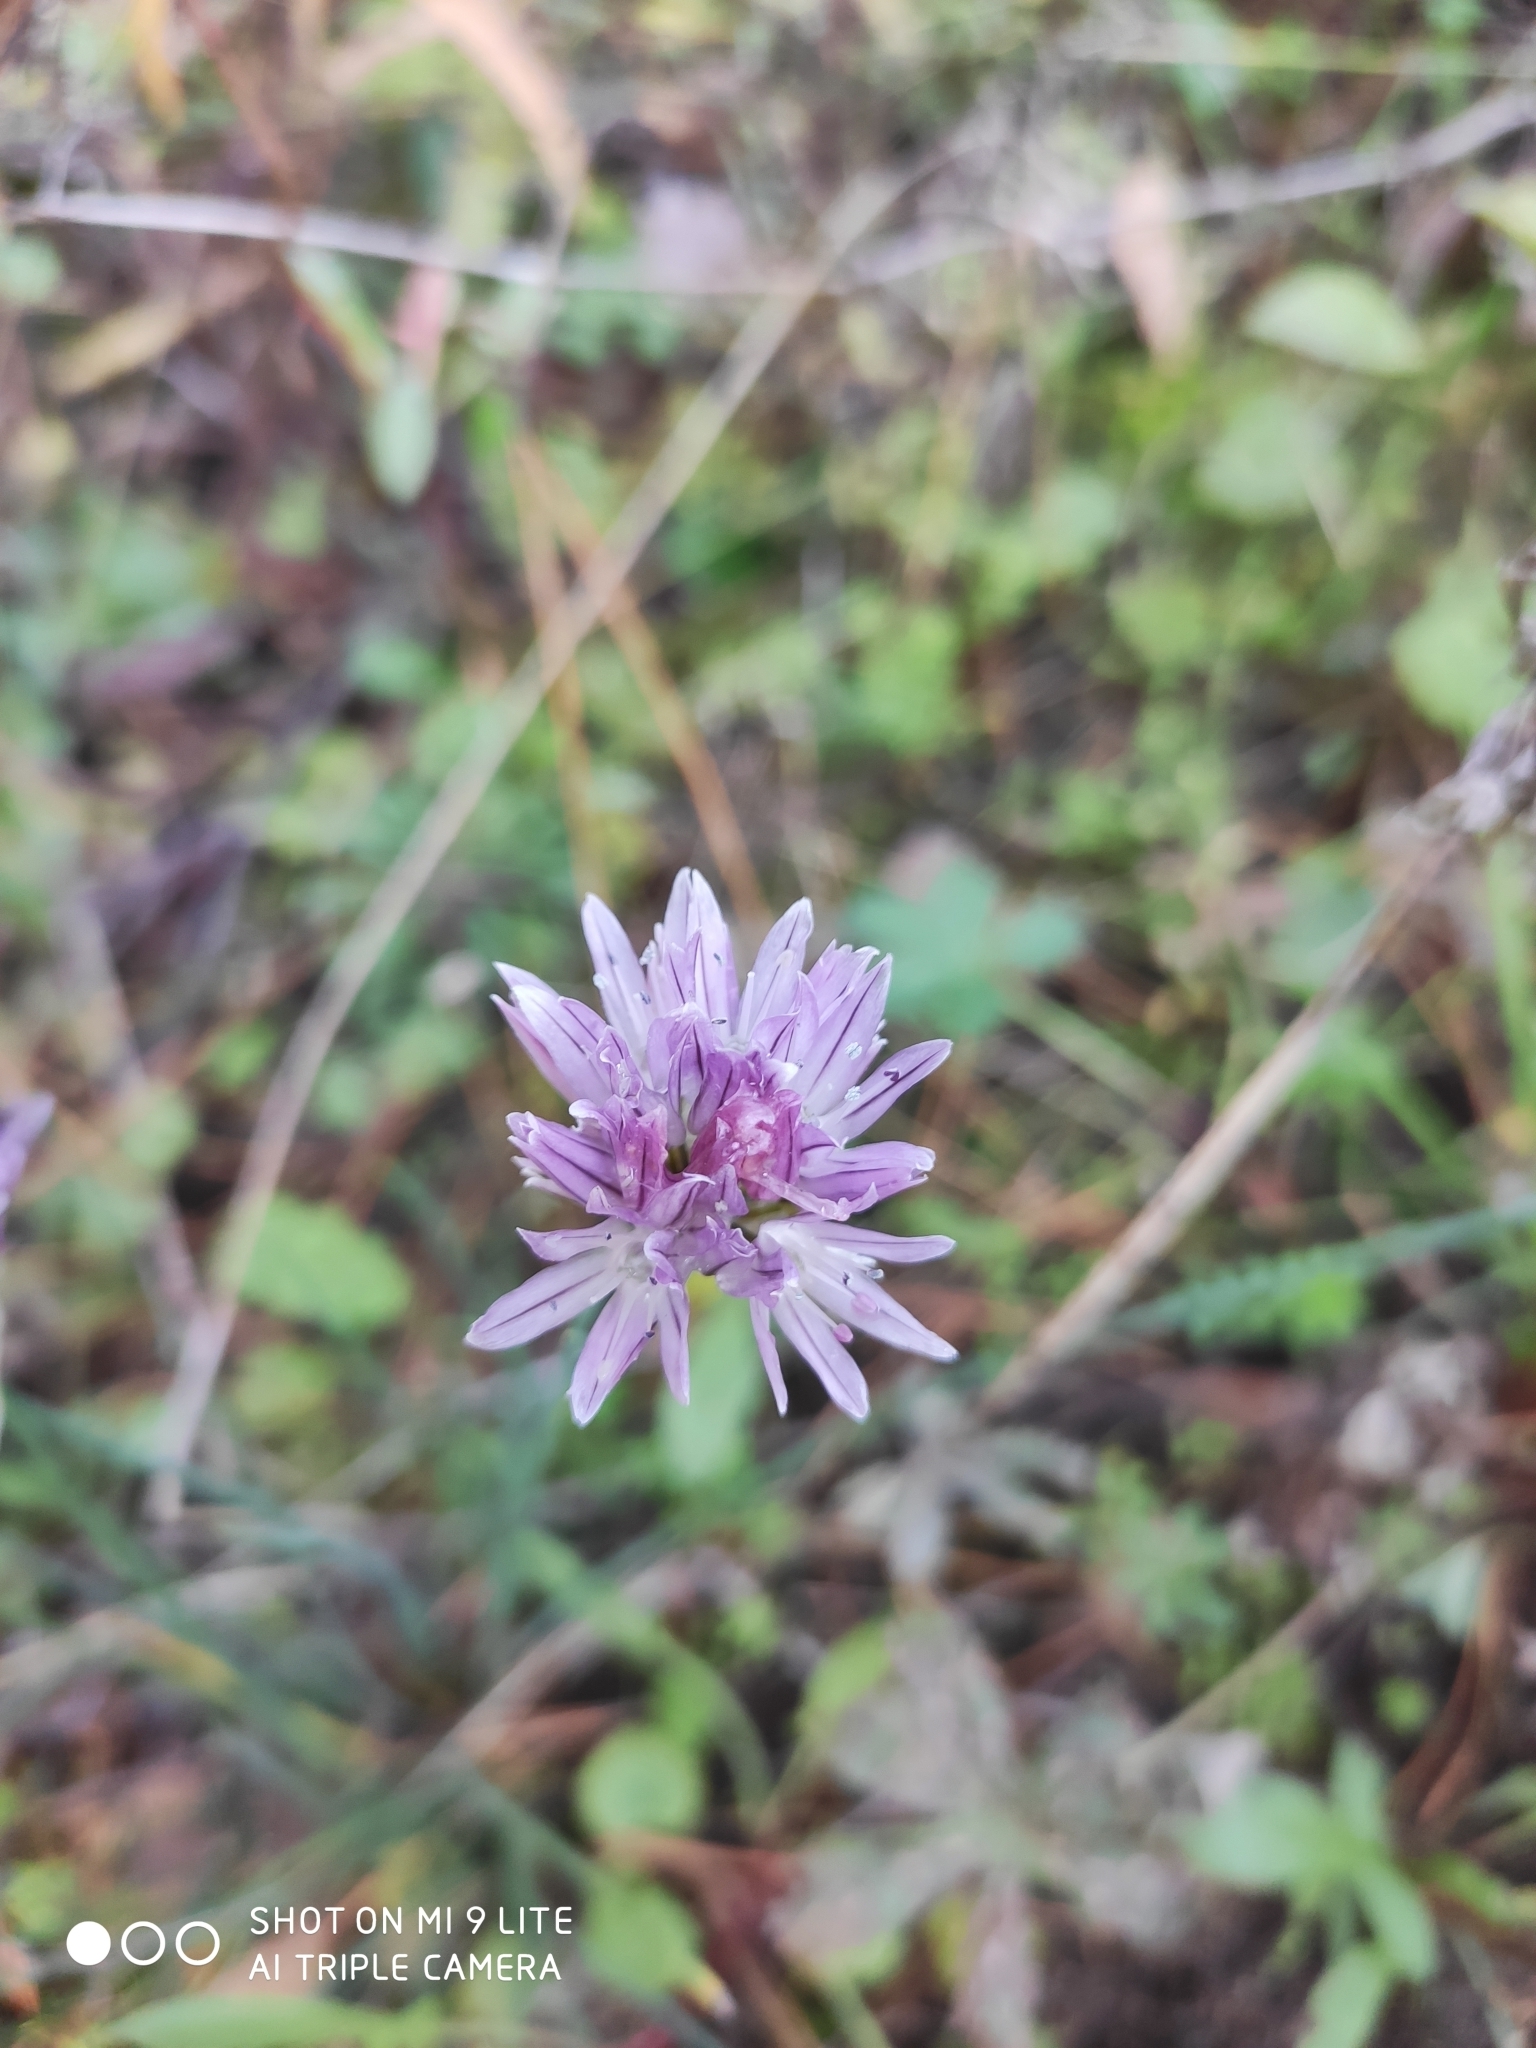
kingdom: Plantae
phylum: Tracheophyta
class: Liliopsida
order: Asparagales
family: Amaryllidaceae
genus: Allium
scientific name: Allium schoenoprasum
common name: Chives
